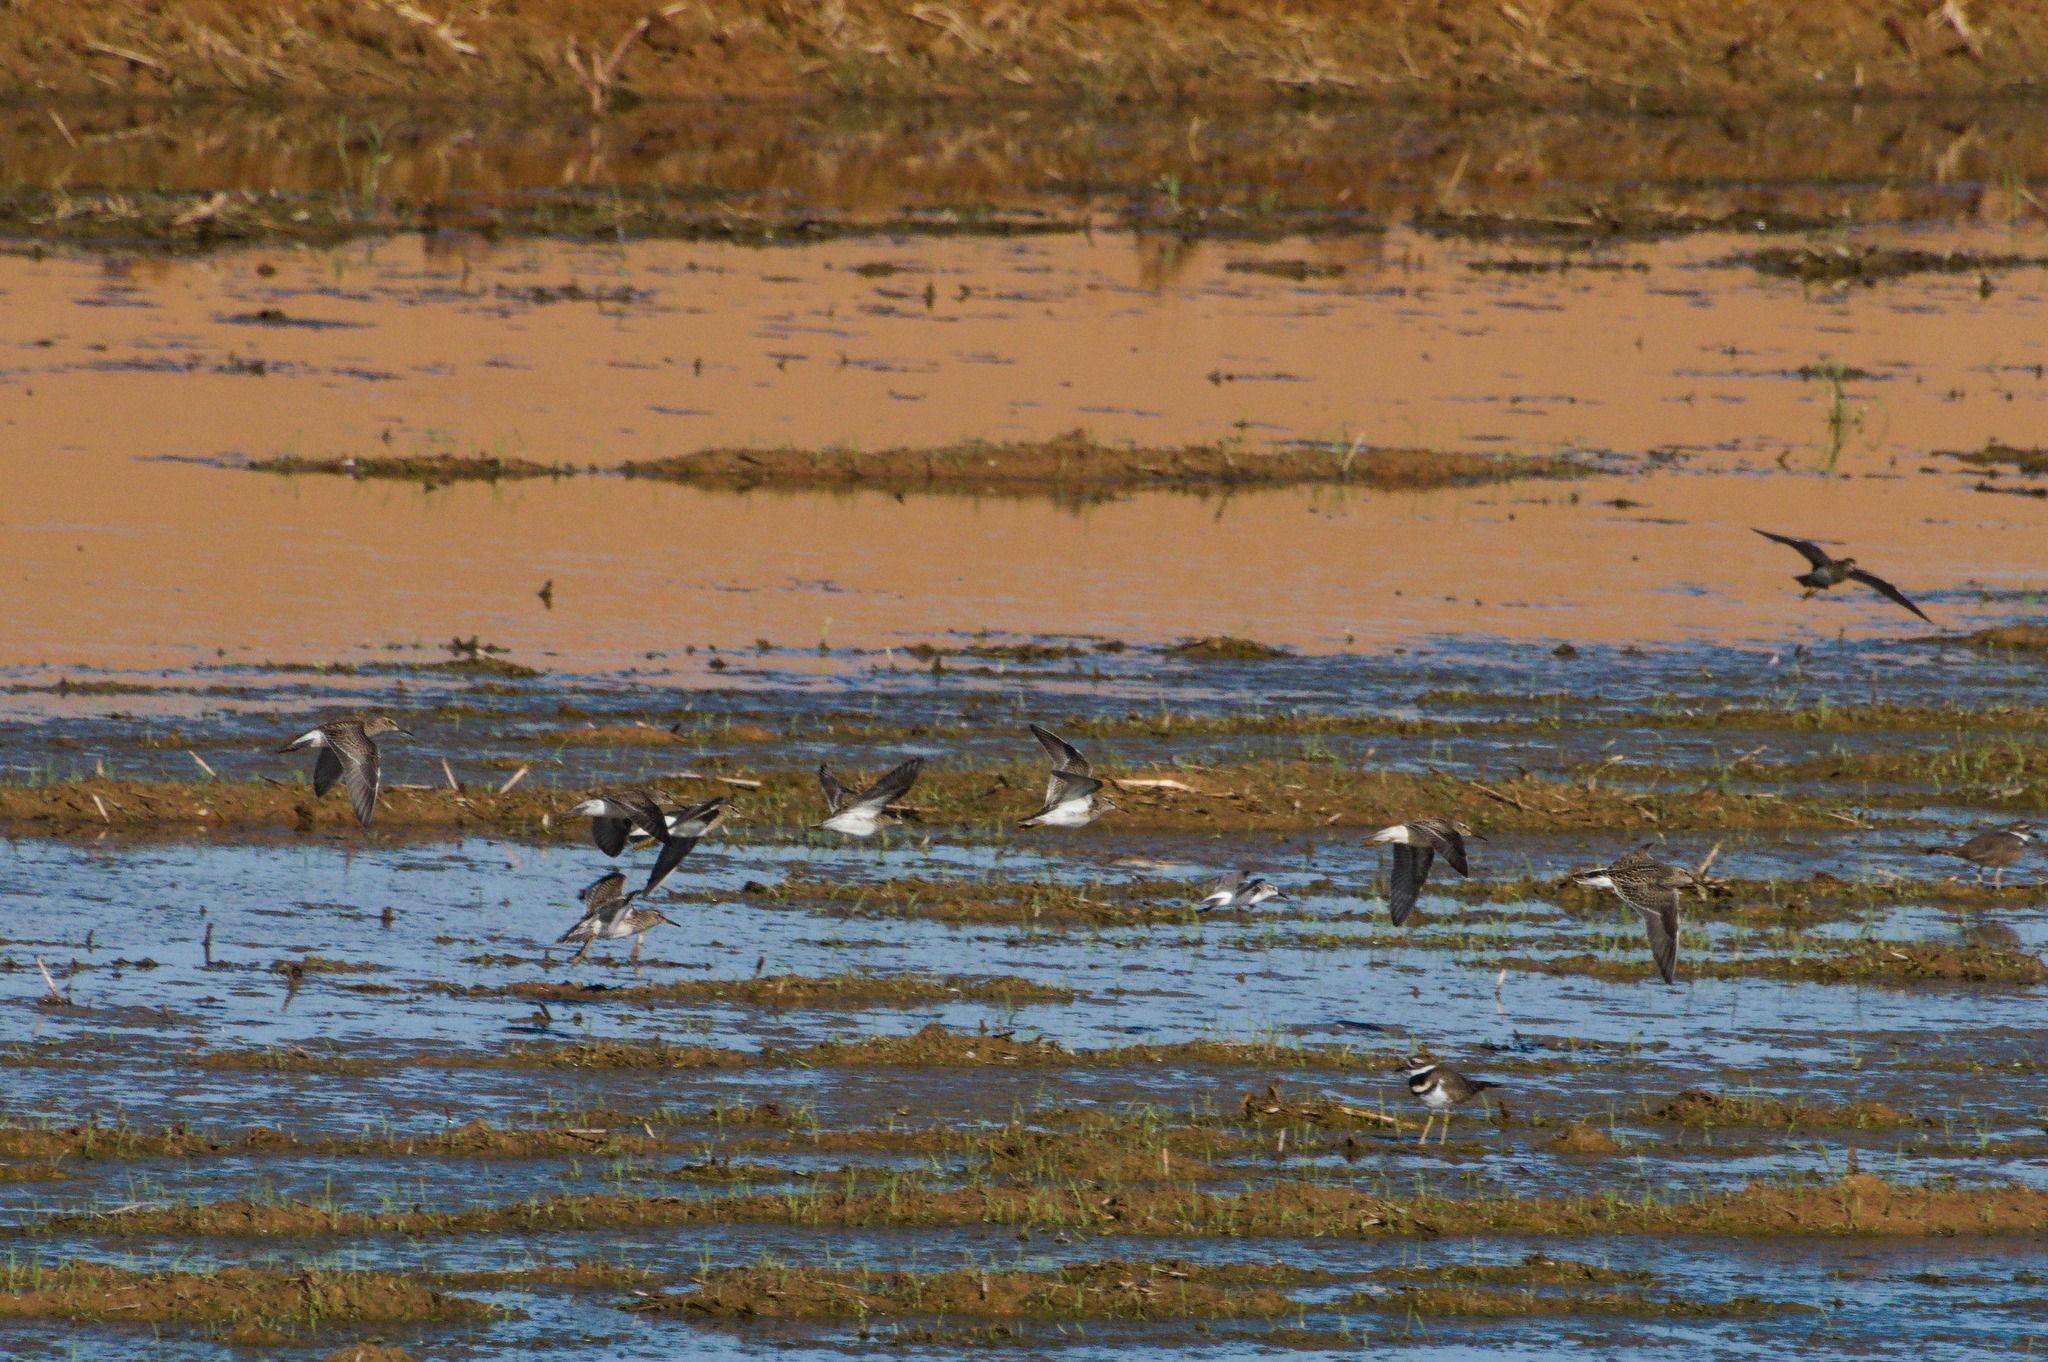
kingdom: Animalia
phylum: Chordata
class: Aves
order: Charadriiformes
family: Scolopacidae
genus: Calidris
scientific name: Calidris melanotos
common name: Pectoral sandpiper
